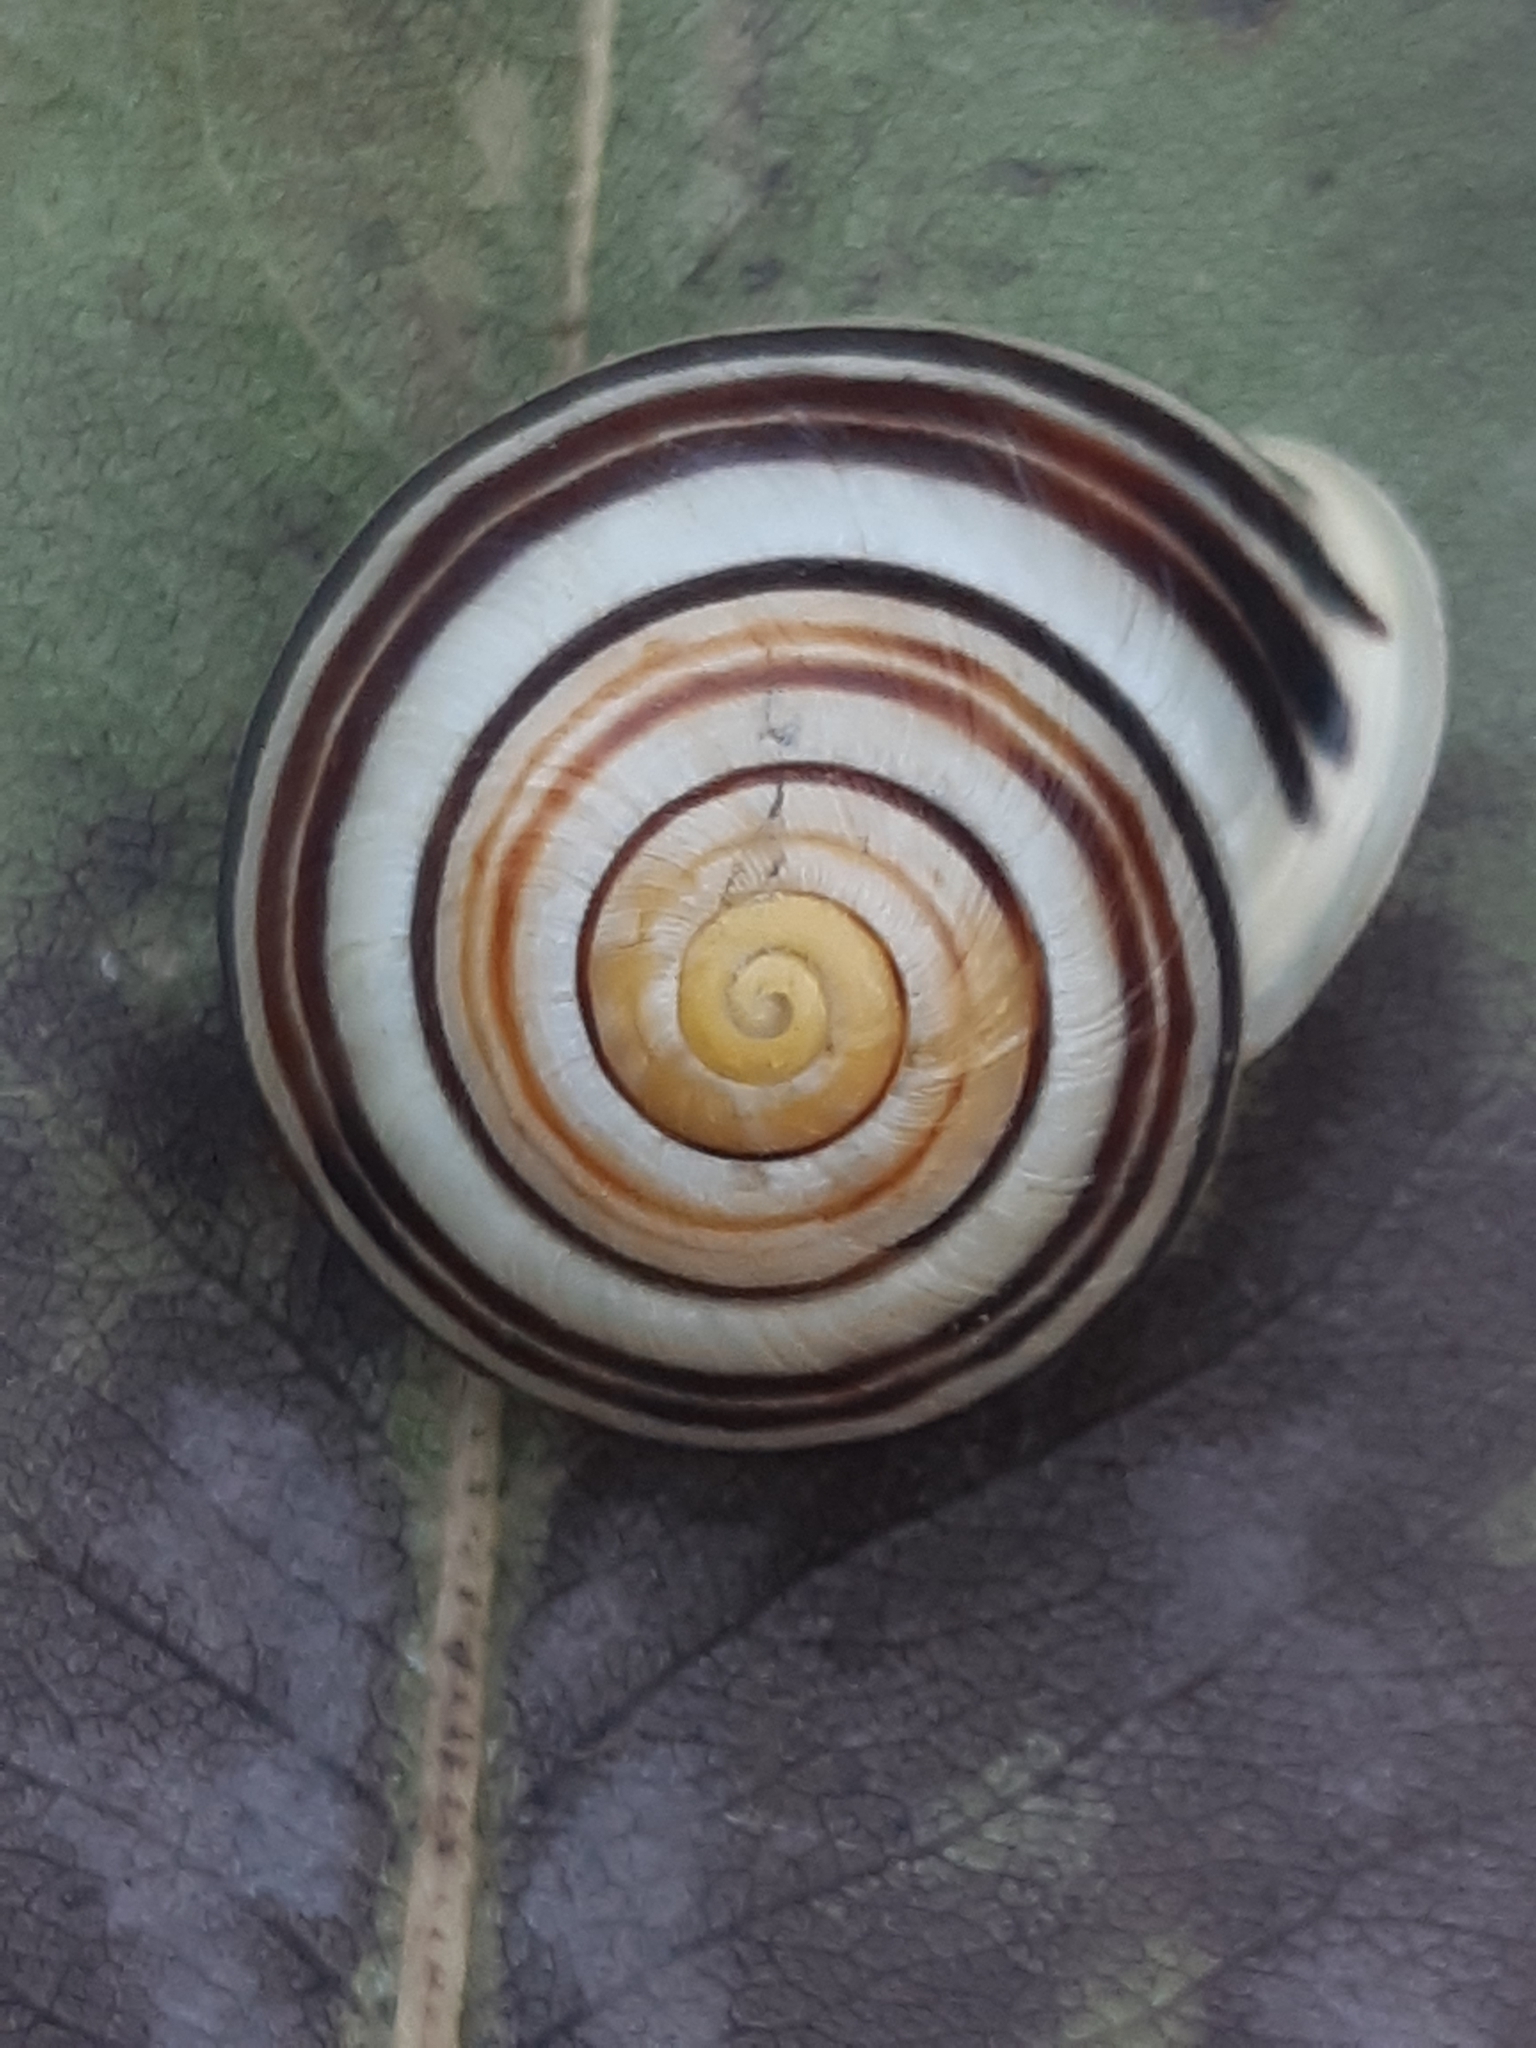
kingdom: Animalia
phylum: Mollusca
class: Gastropoda
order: Stylommatophora
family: Helicidae
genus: Cepaea
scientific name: Cepaea hortensis
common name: White-lip gardensnail
